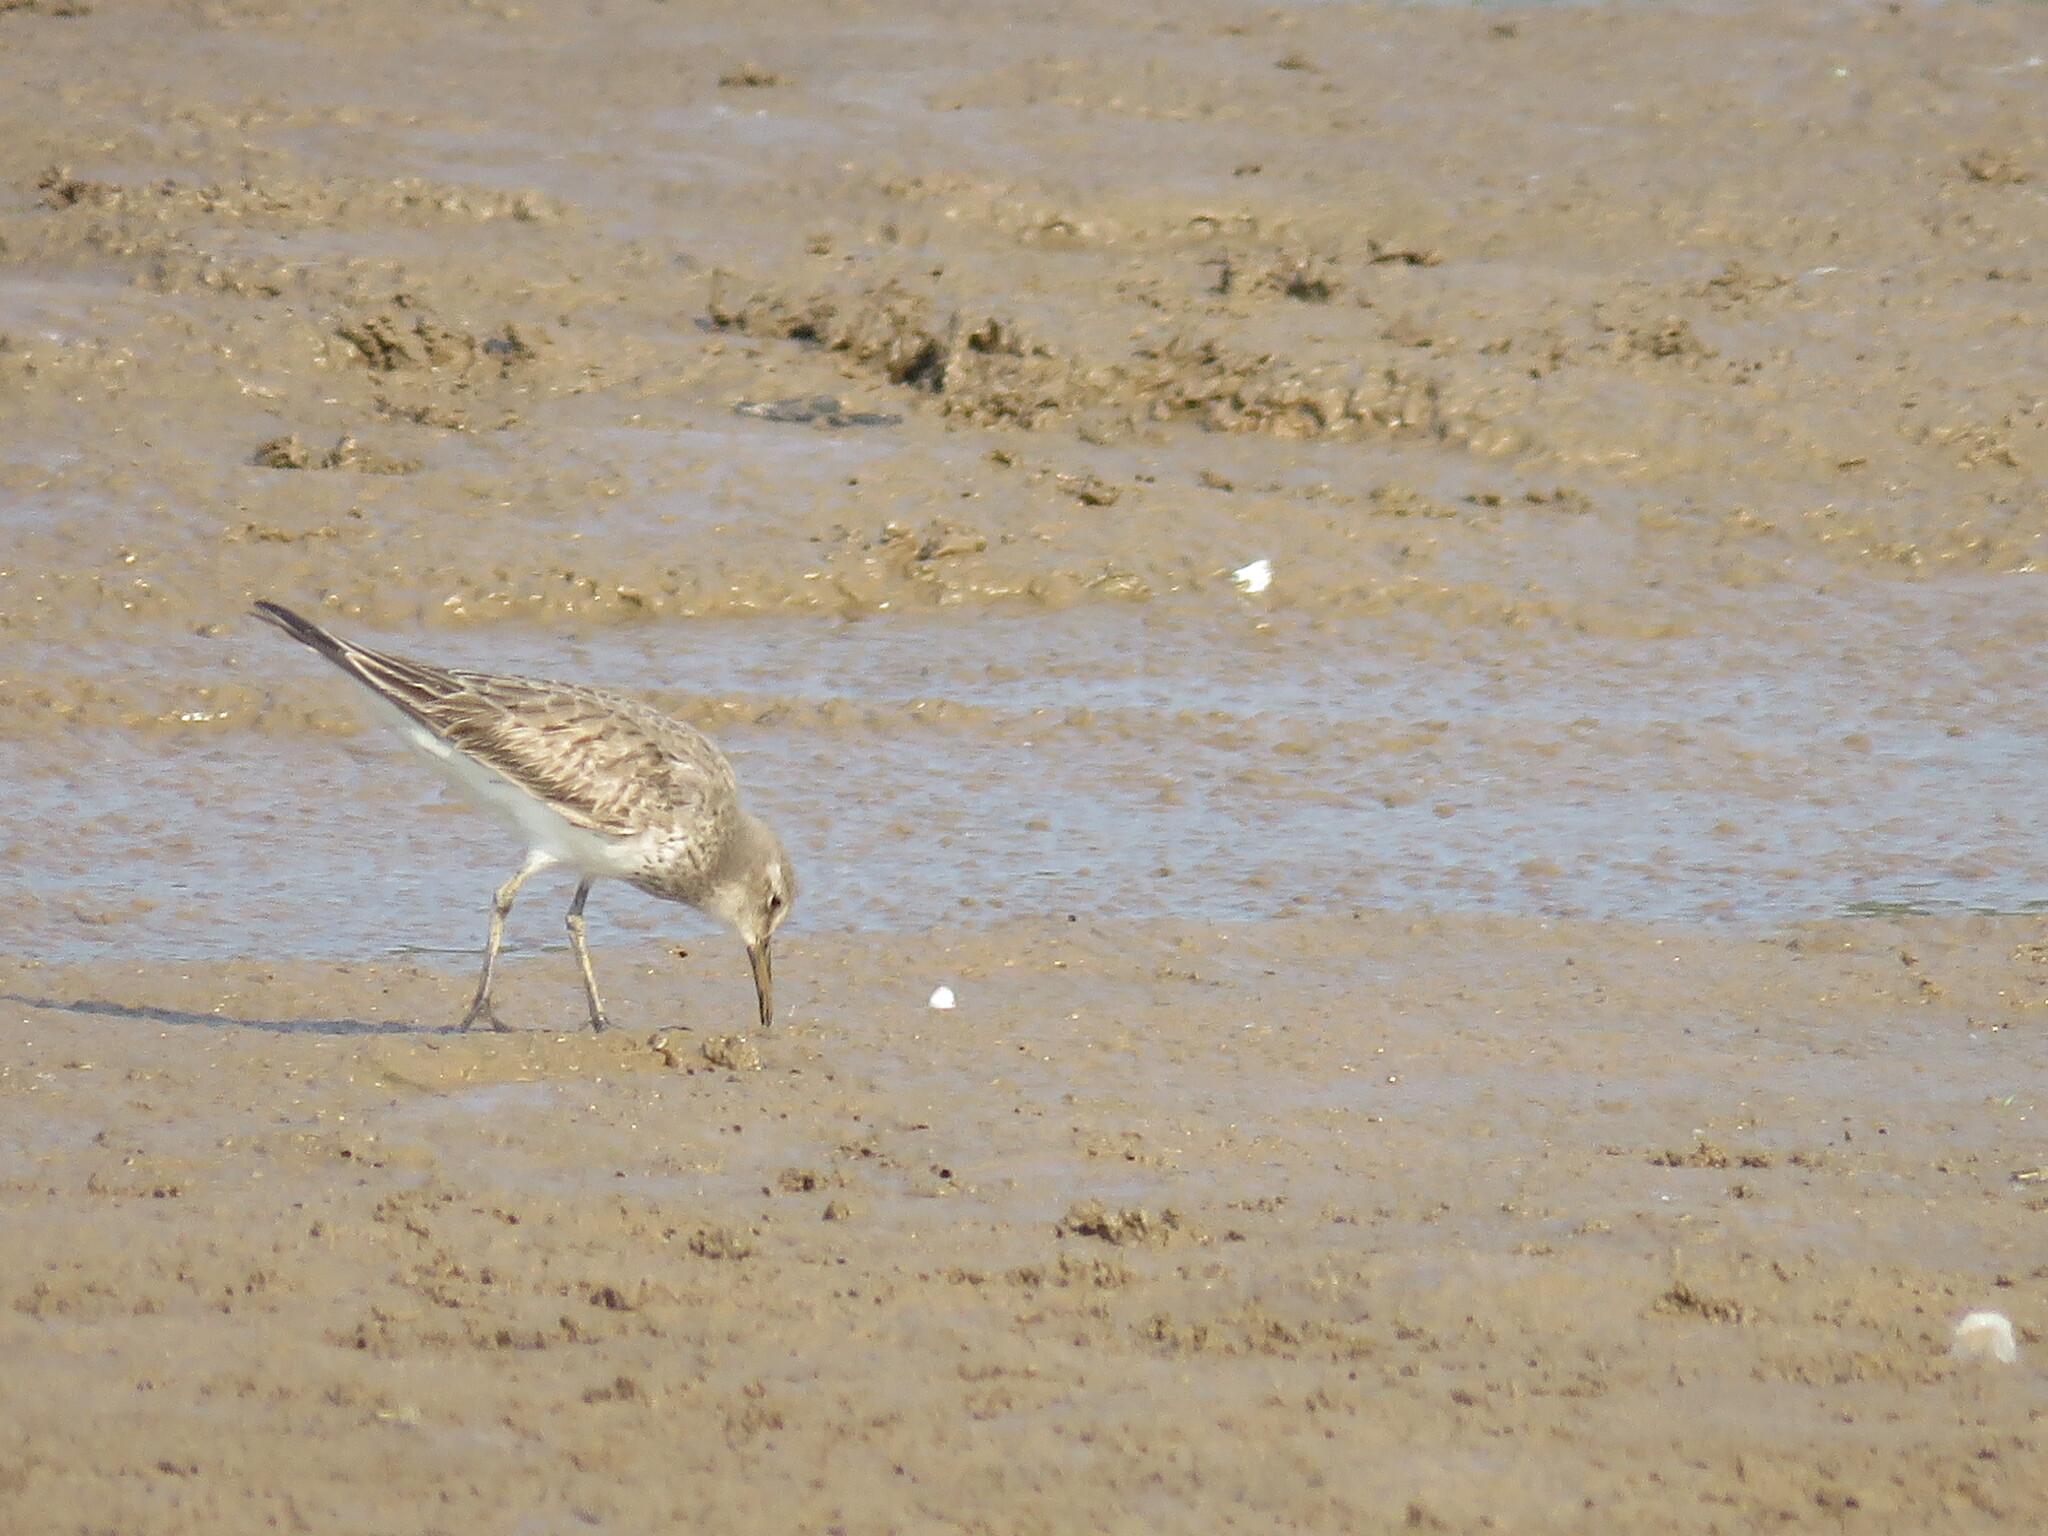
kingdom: Animalia
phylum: Chordata
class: Aves
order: Charadriiformes
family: Scolopacidae
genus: Calidris
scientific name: Calidris fuscicollis
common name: White-rumped sandpiper
